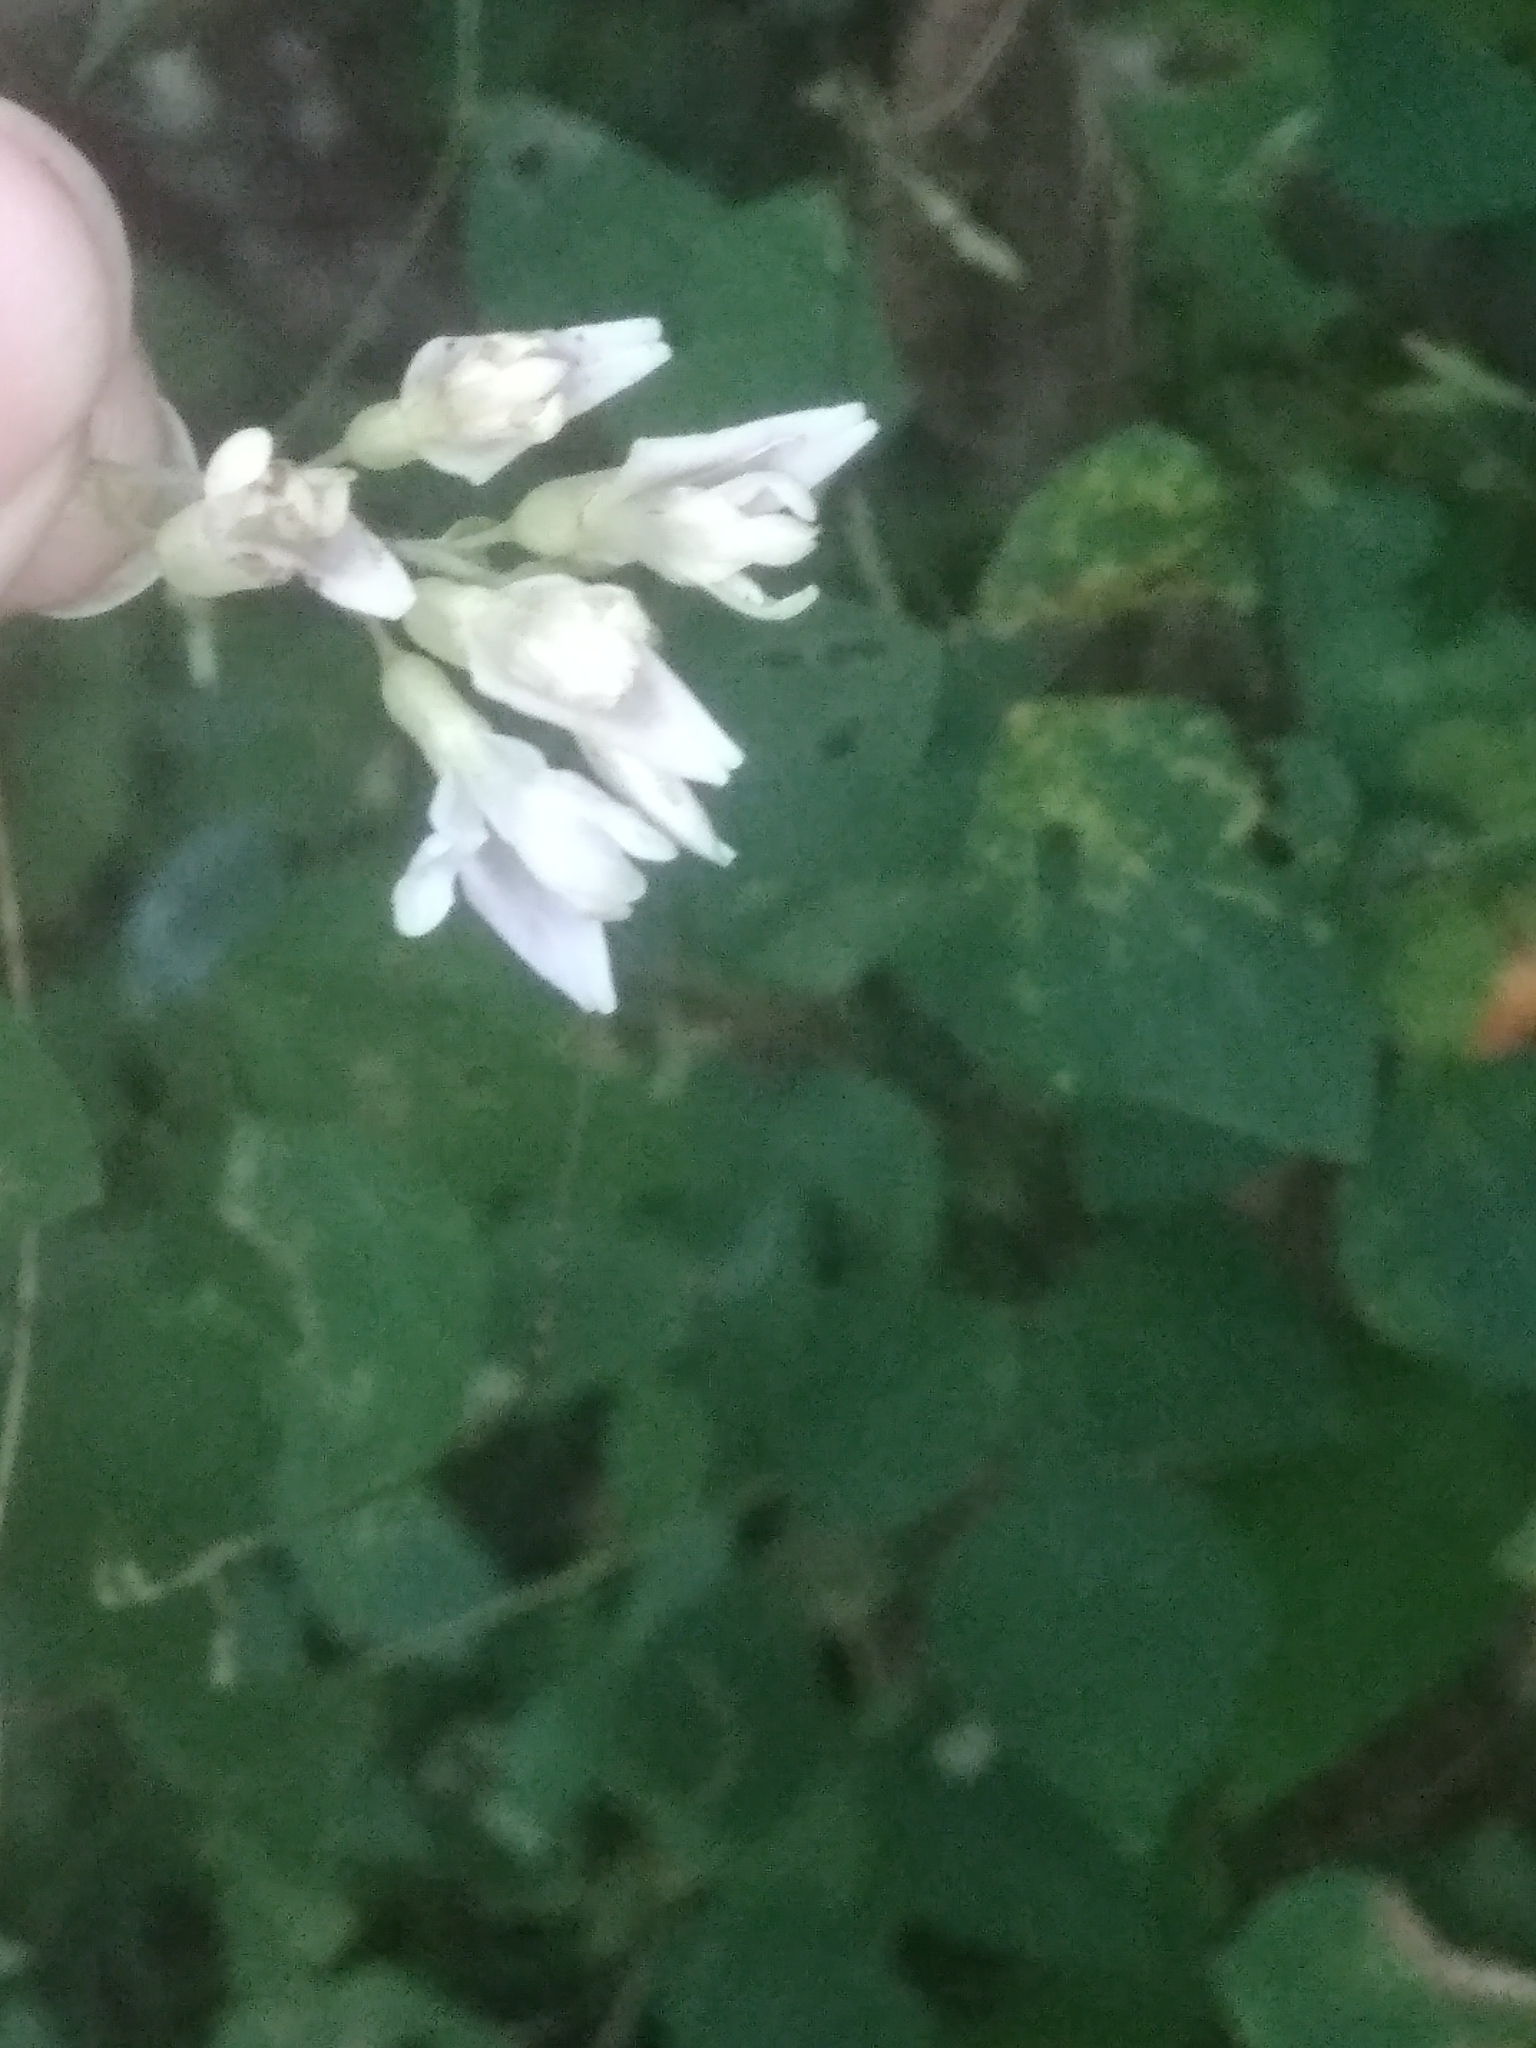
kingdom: Plantae
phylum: Tracheophyta
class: Magnoliopsida
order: Fabales
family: Fabaceae
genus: Amphicarpaea
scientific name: Amphicarpaea bracteata
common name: American hog peanut
